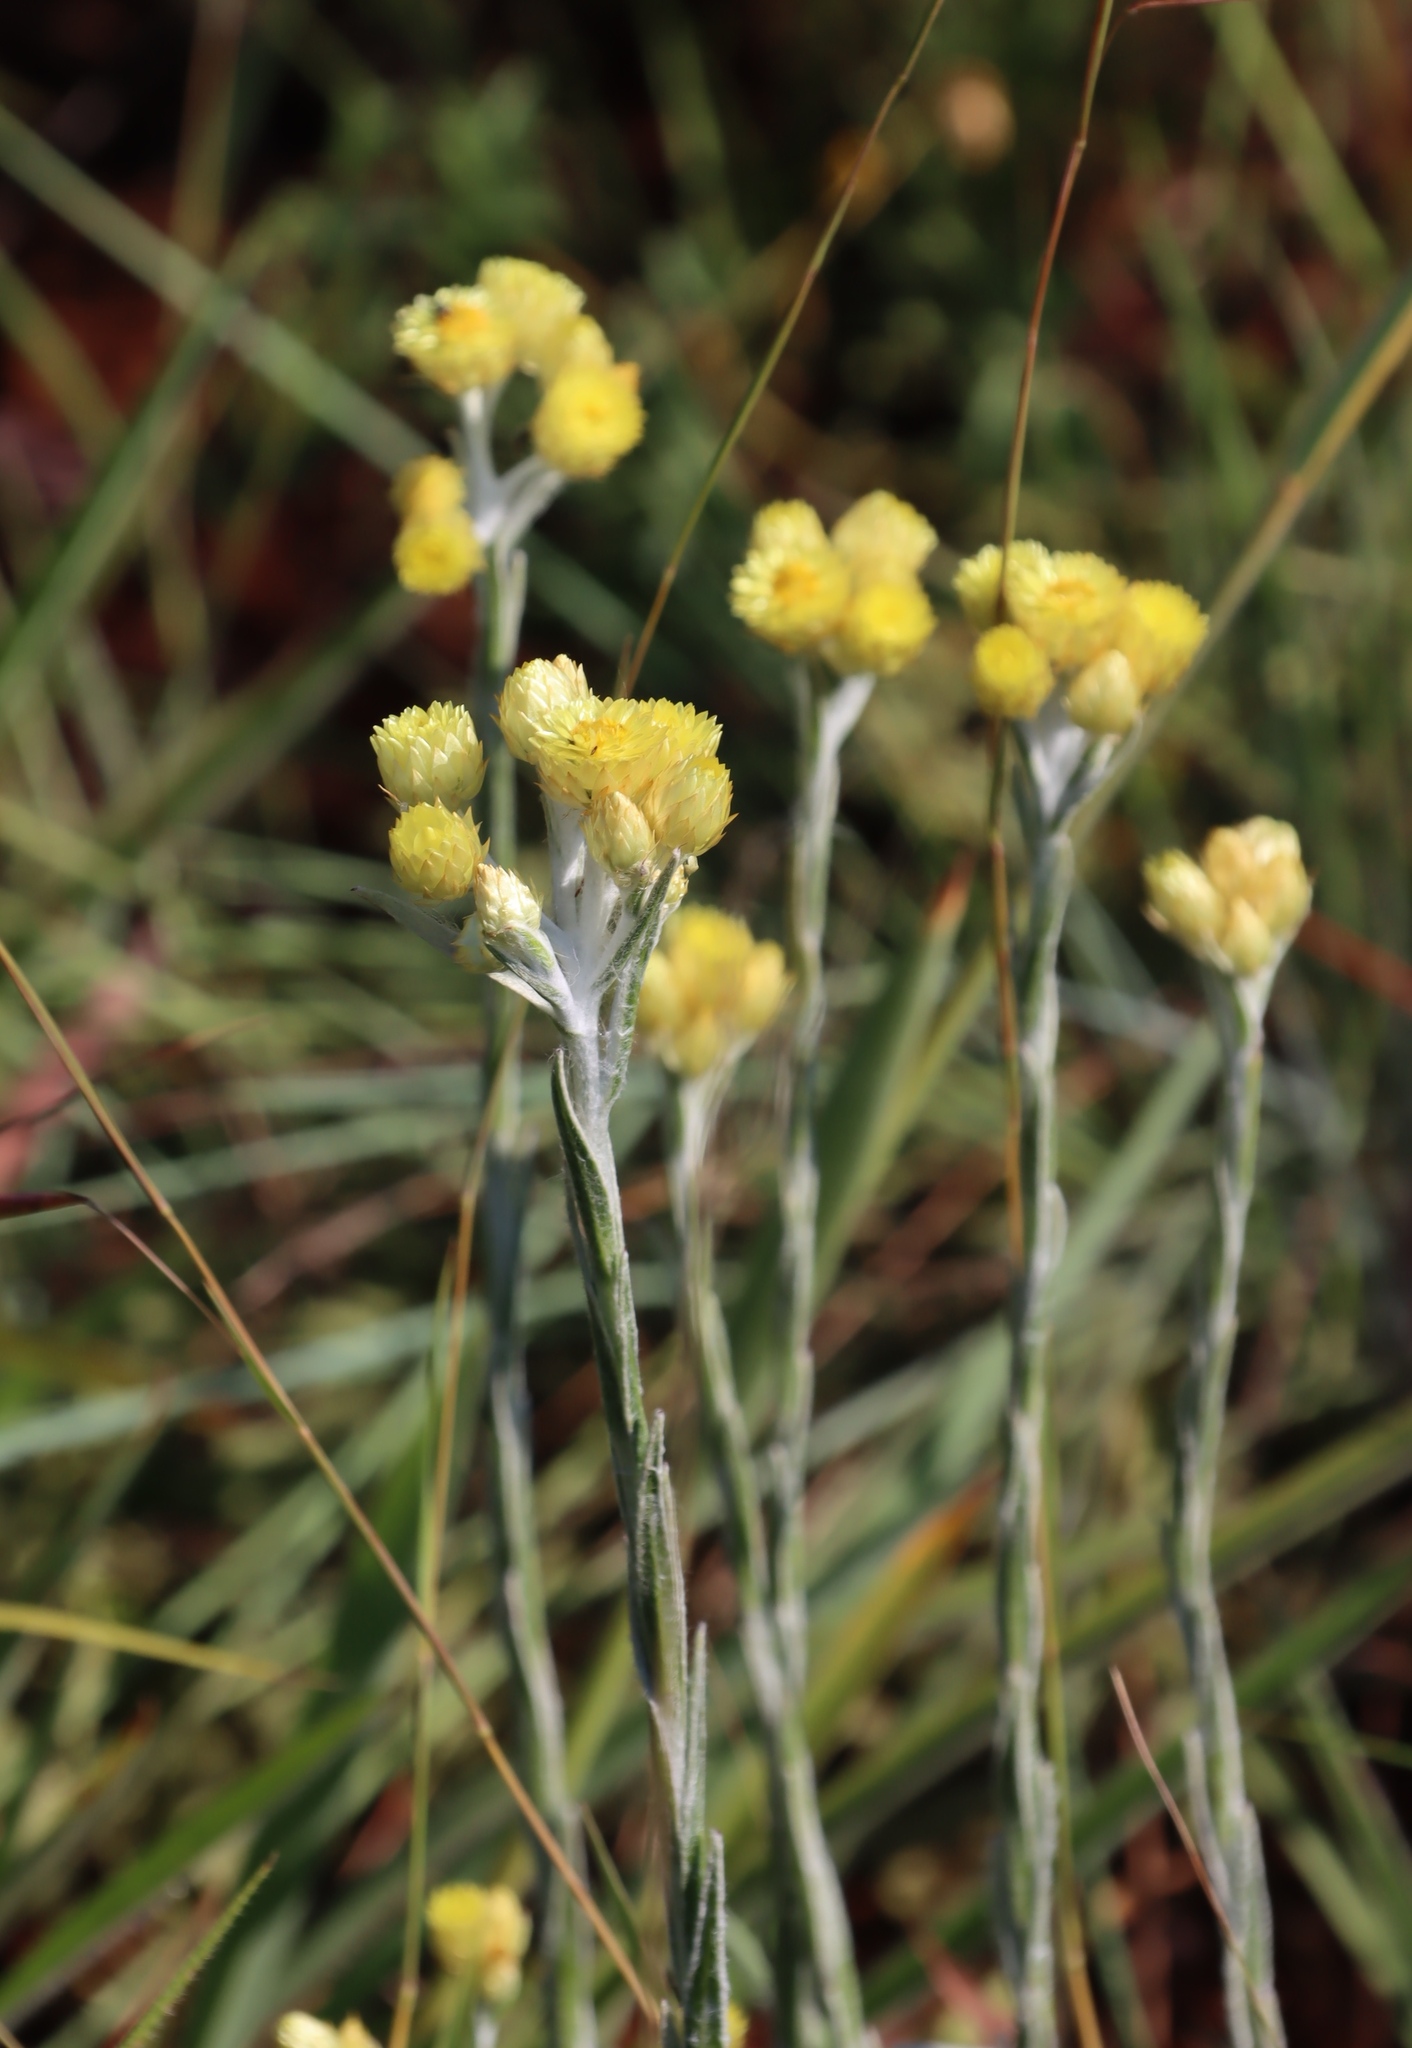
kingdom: Plantae
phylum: Tracheophyta
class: Magnoliopsida
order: Asterales
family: Asteraceae
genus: Helichrysum
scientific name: Helichrysum mixtum
